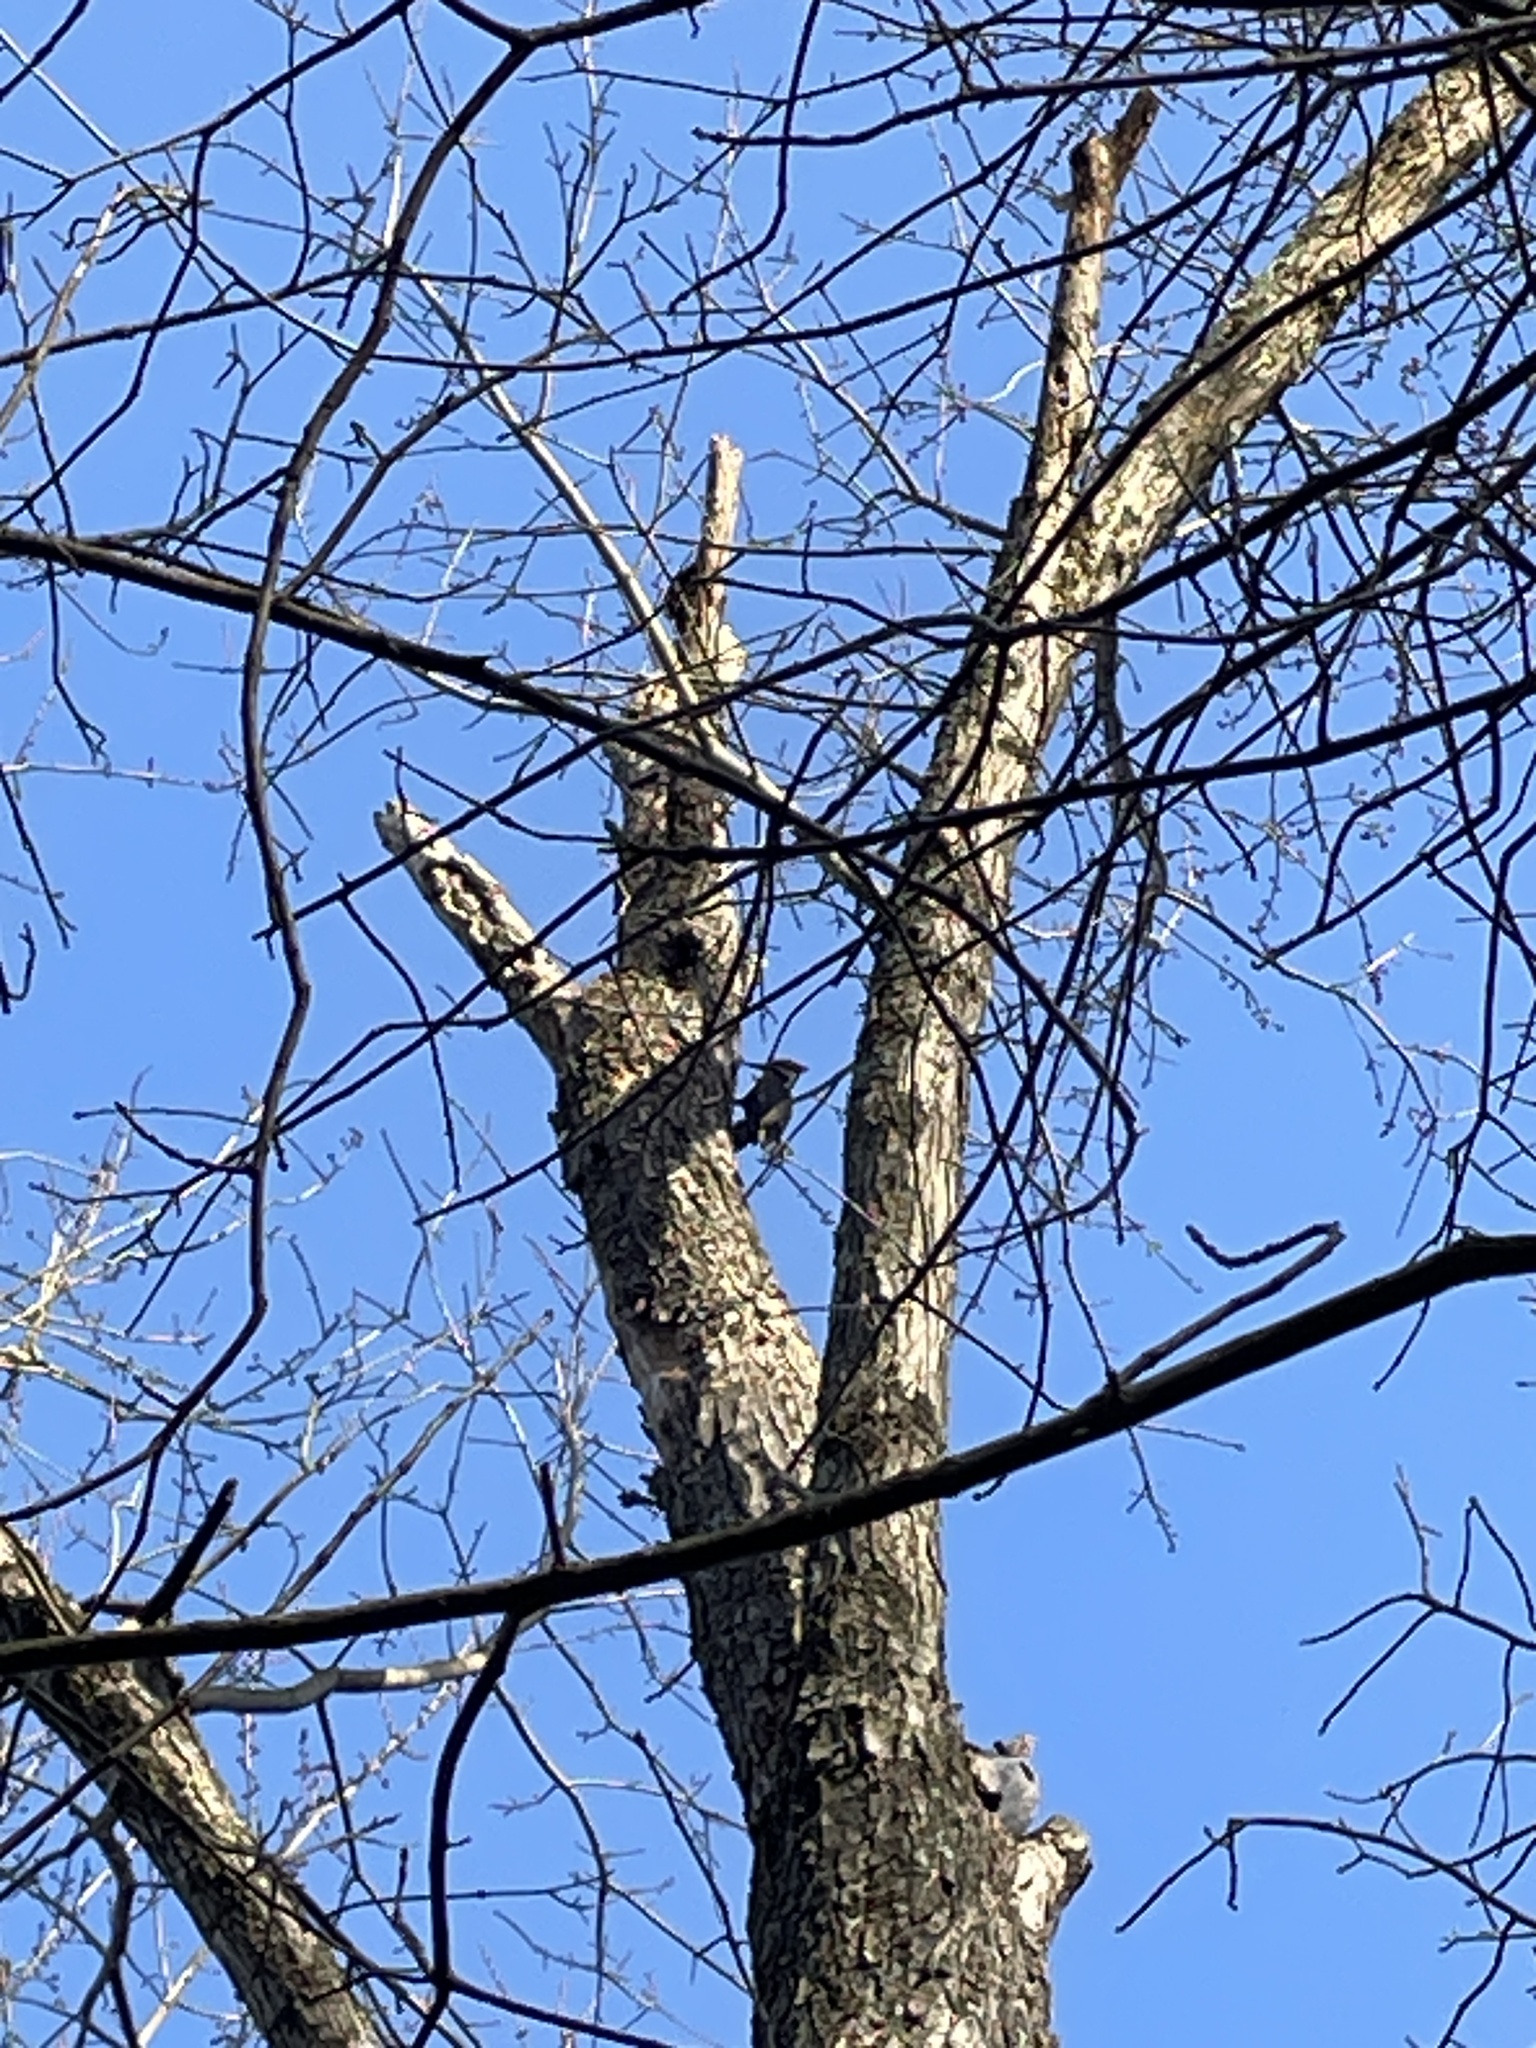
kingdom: Animalia
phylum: Chordata
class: Aves
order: Piciformes
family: Picidae
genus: Dryocopus
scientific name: Dryocopus pileatus
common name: Pileated woodpecker
